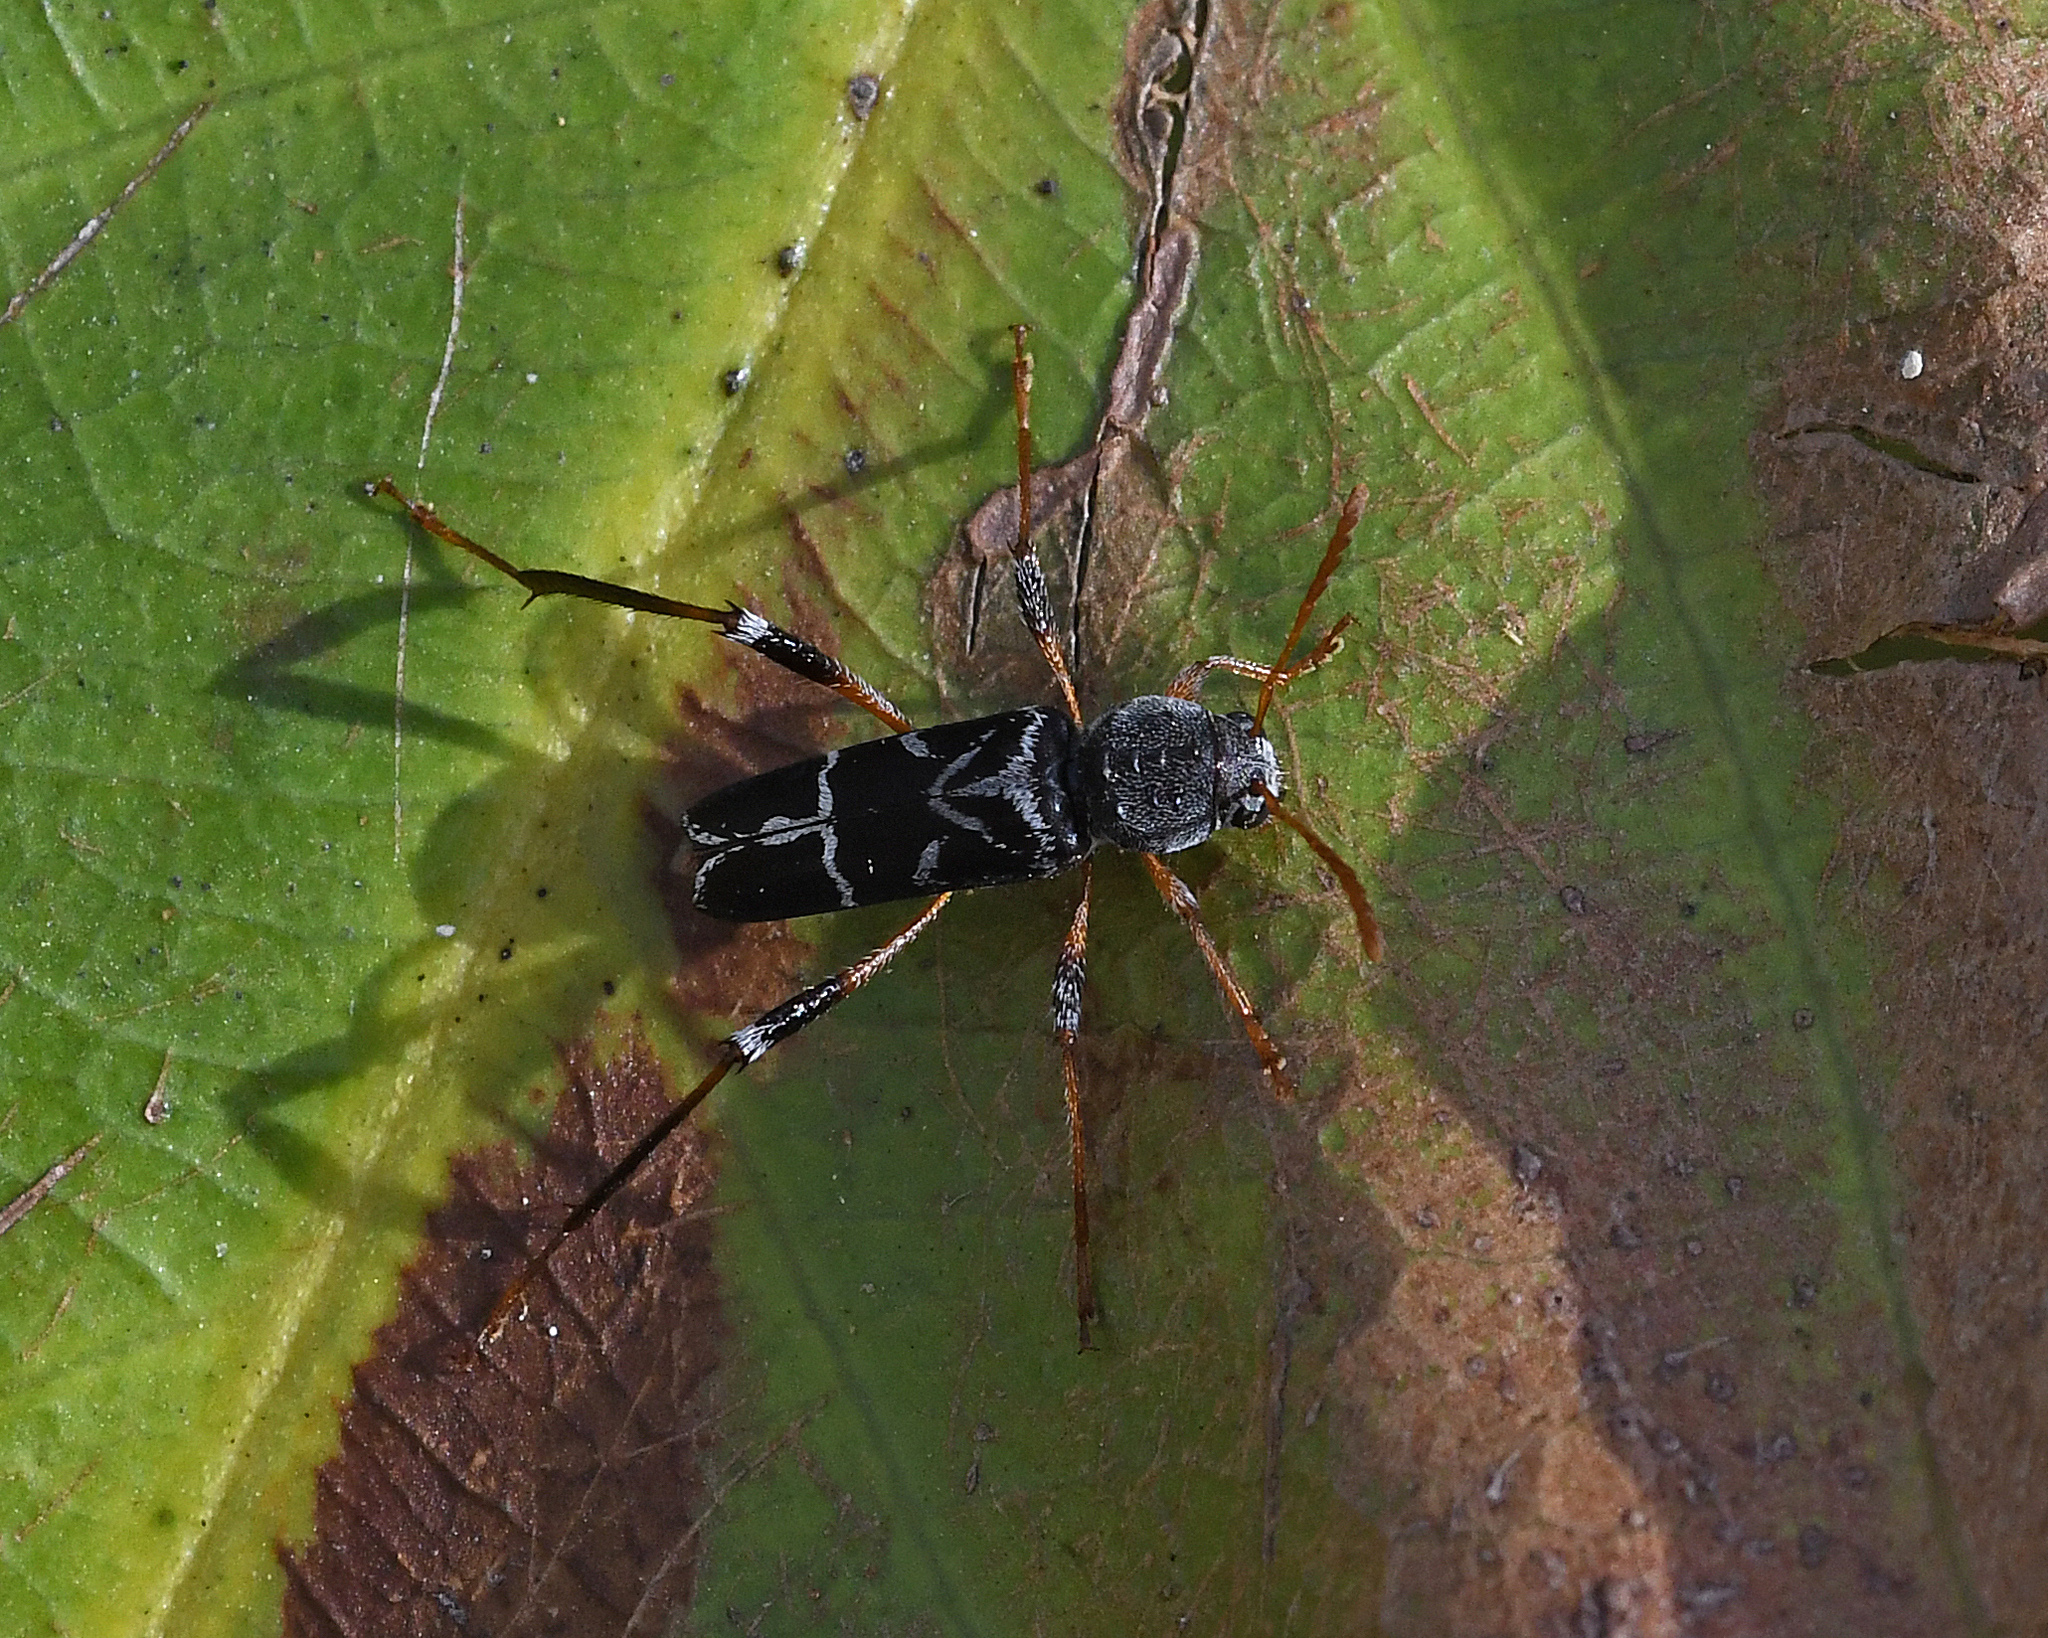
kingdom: Animalia
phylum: Arthropoda
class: Insecta
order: Coleoptera
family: Cerambycidae
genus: Neoclytus
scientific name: Neoclytus araneiformis
